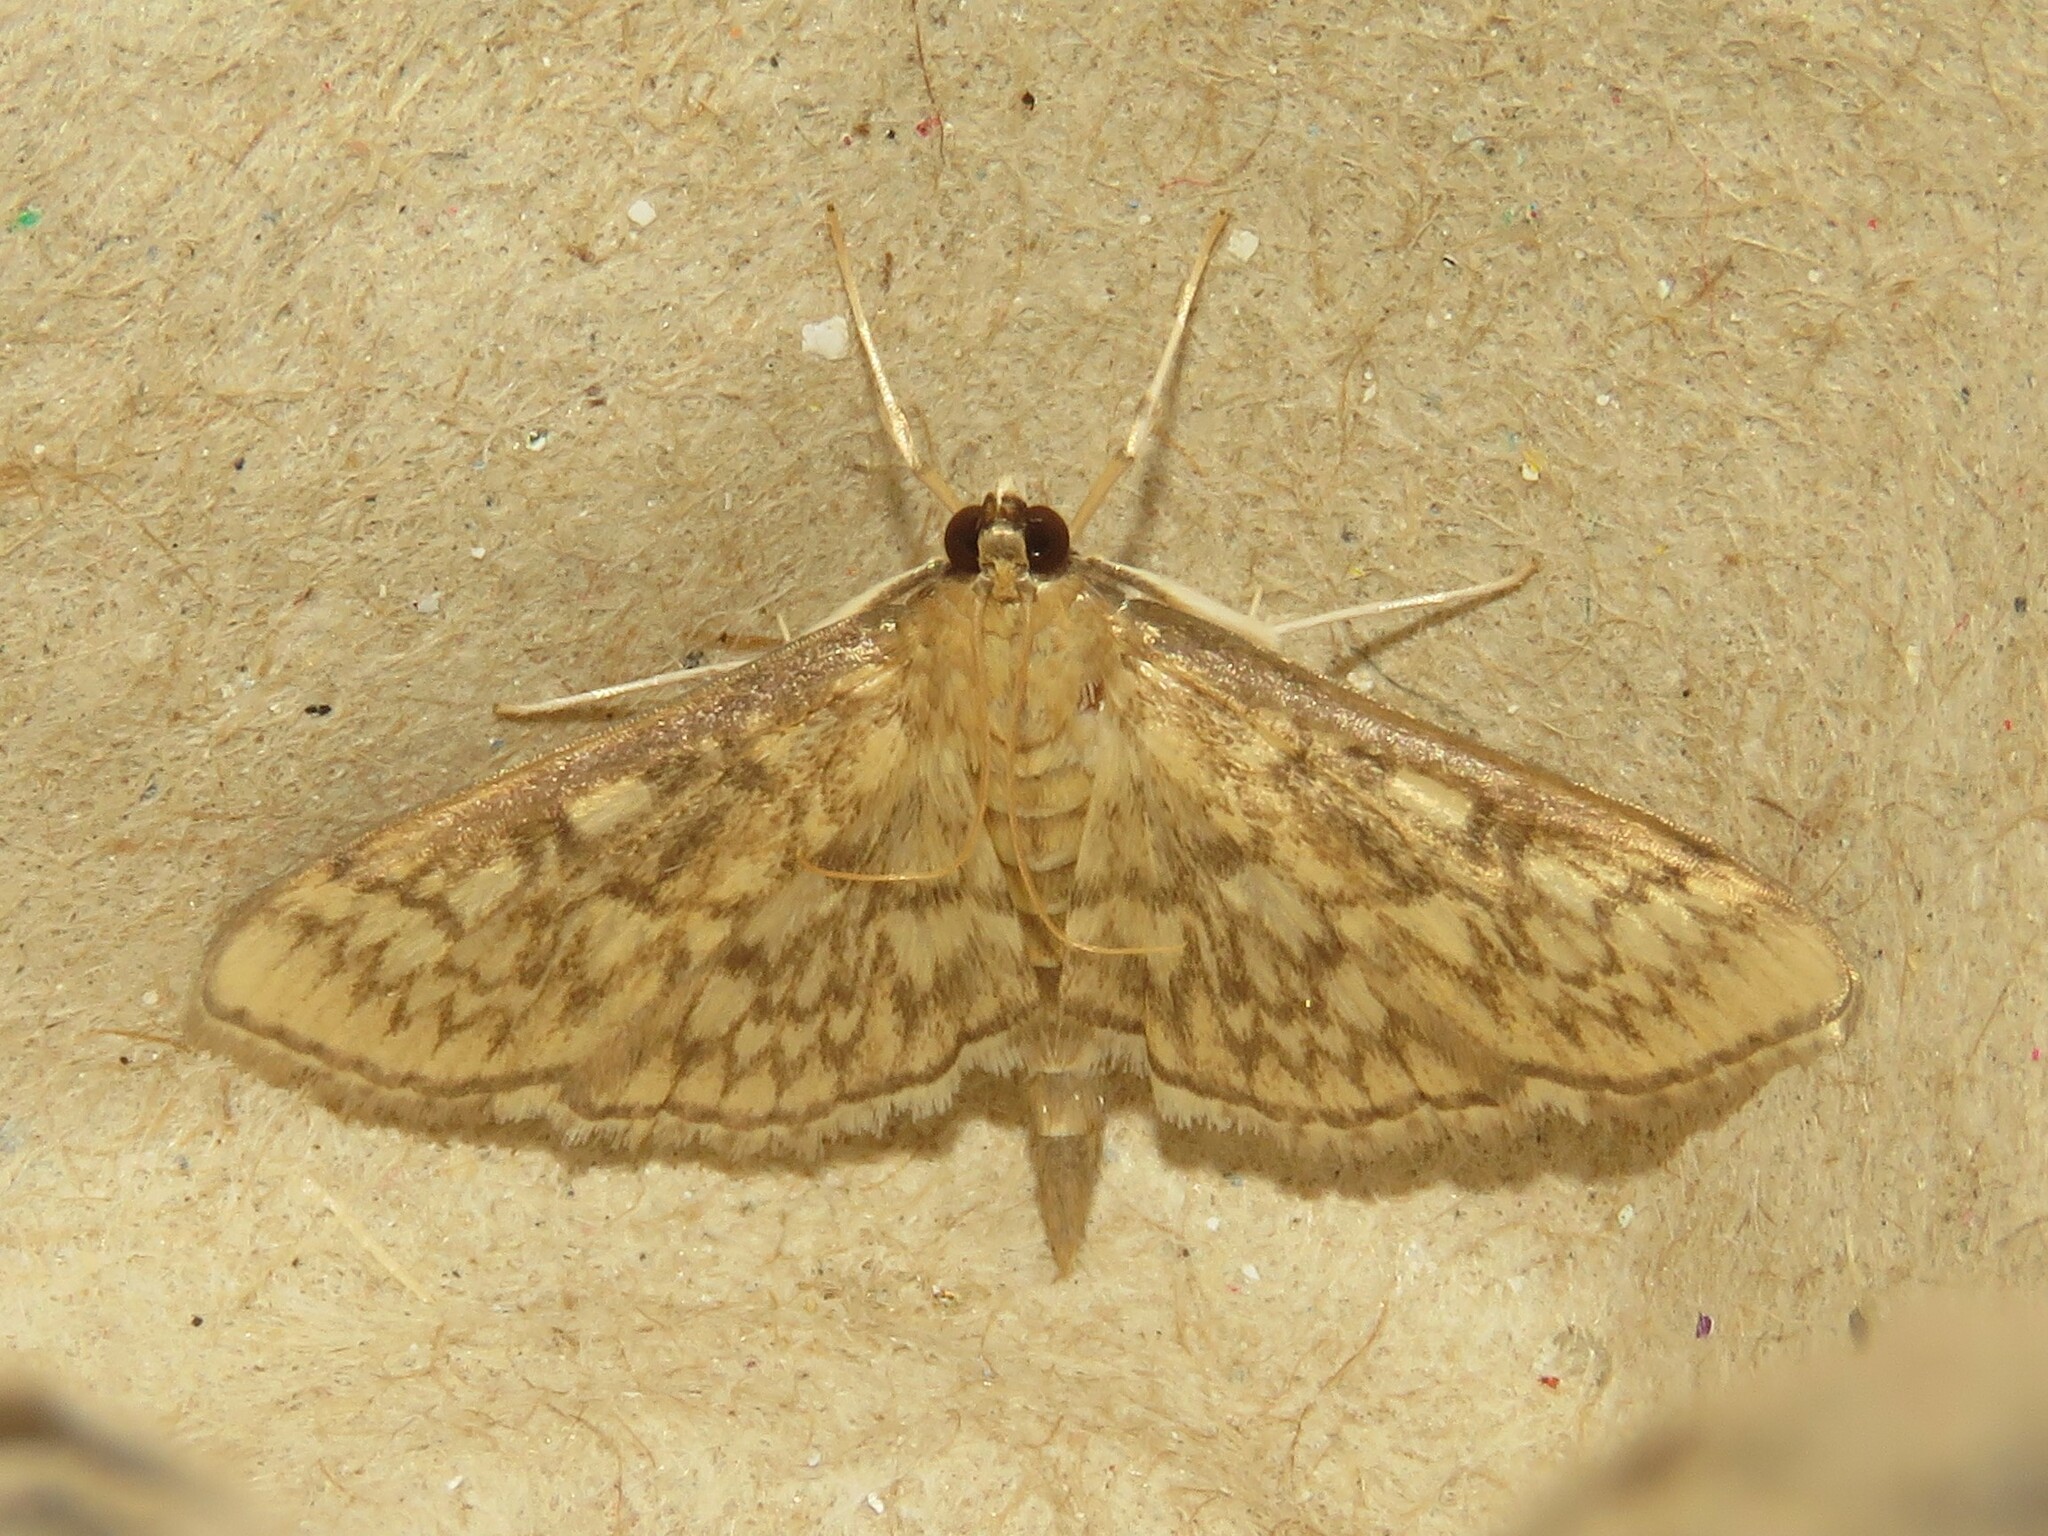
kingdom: Animalia
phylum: Arthropoda
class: Insecta
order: Lepidoptera
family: Crambidae
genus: Herpetogramma
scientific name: Herpetogramma pertextalis
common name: Bold-feathered grass moth
